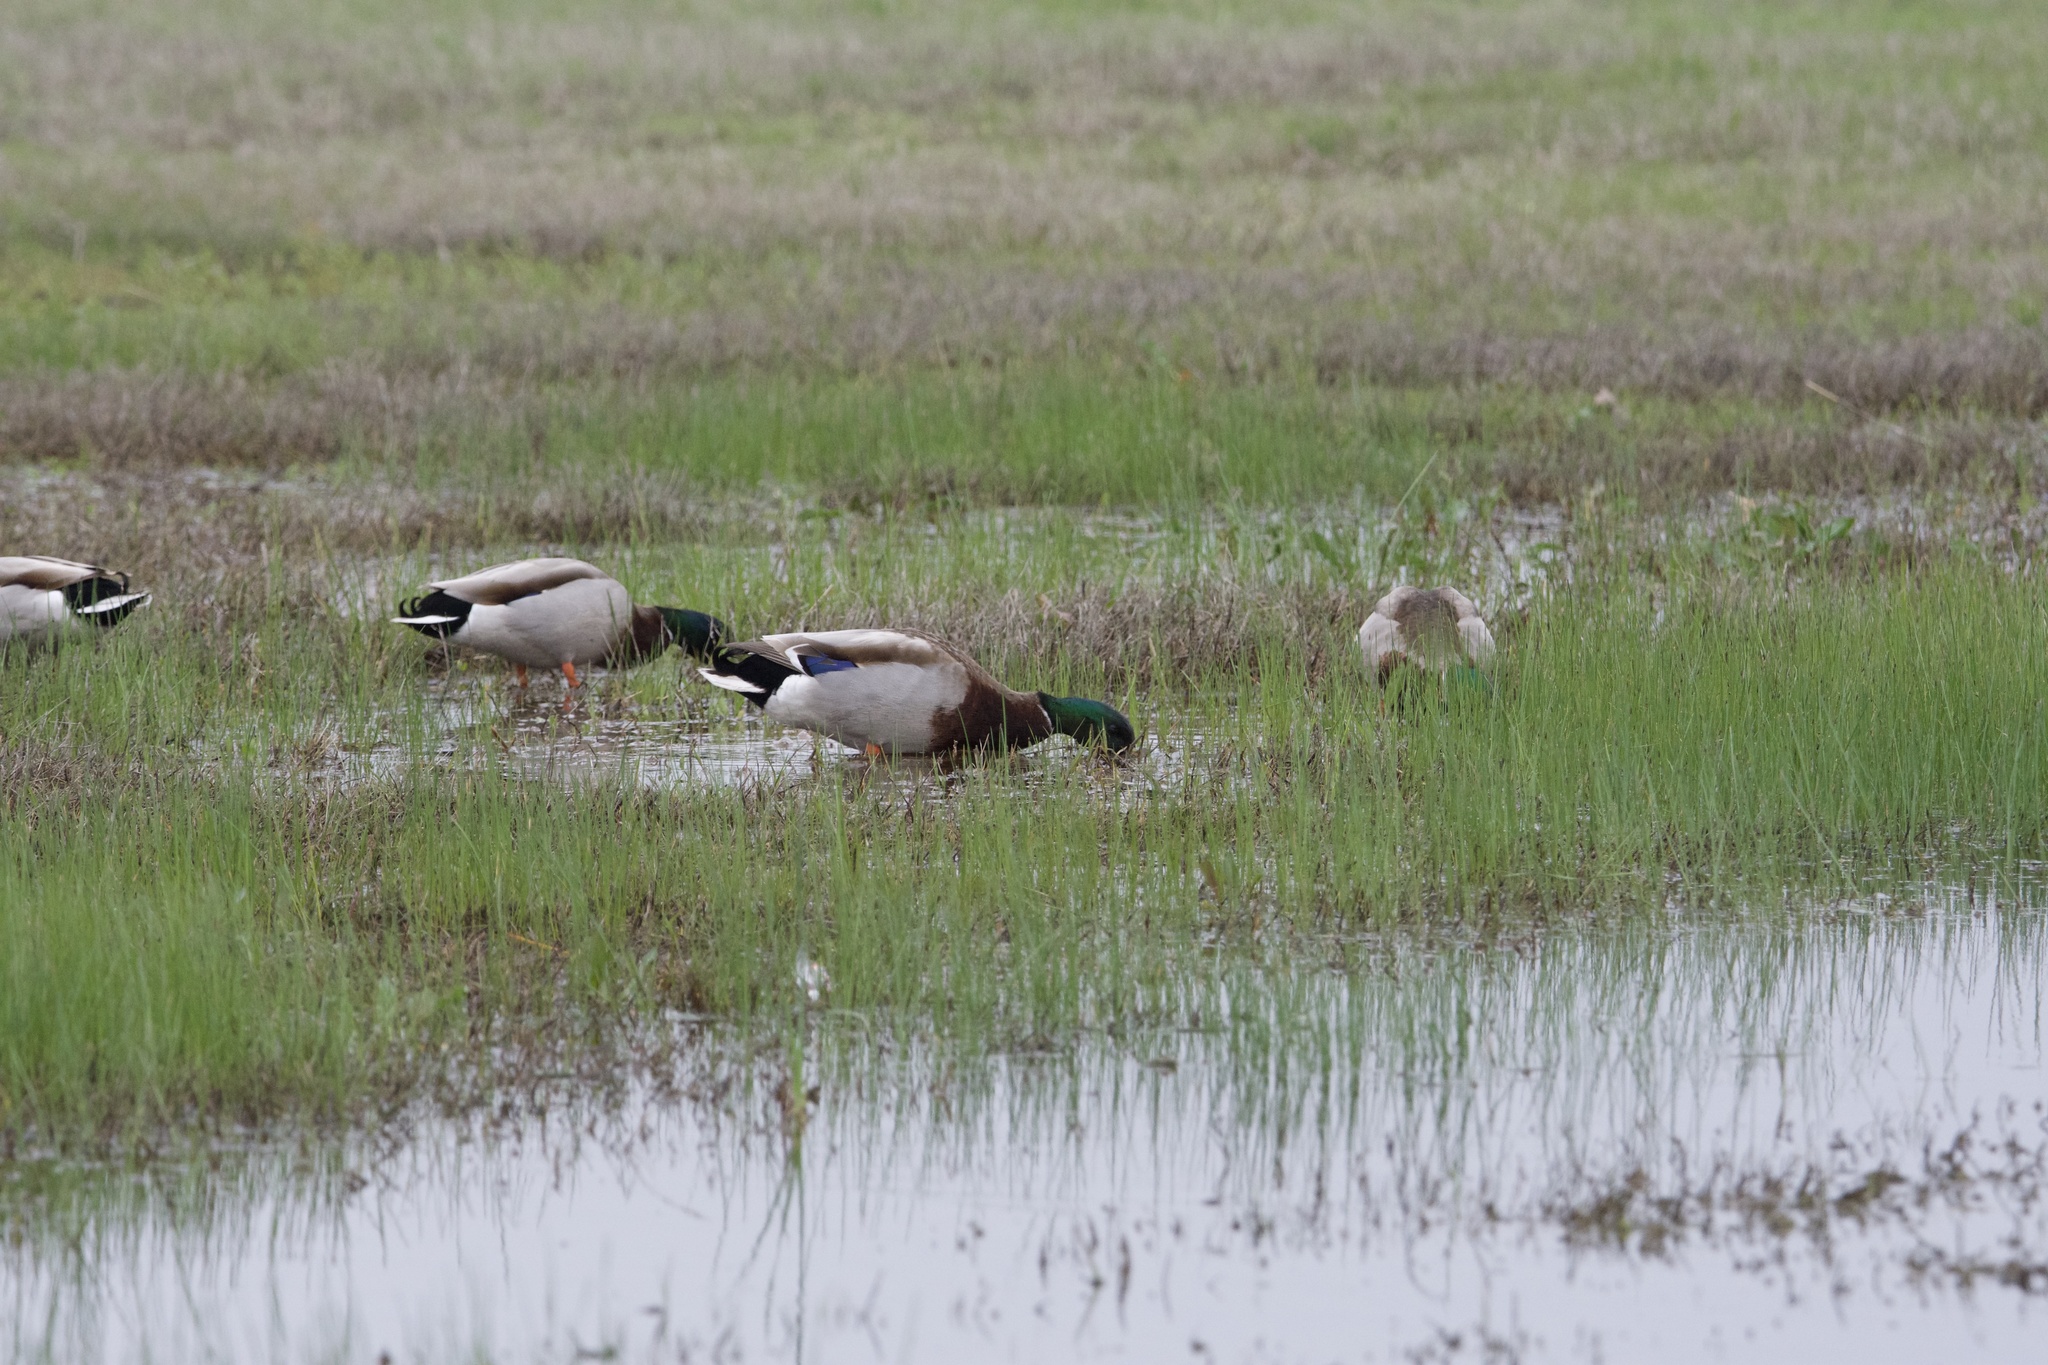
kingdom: Animalia
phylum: Chordata
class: Aves
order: Anseriformes
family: Anatidae
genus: Anas
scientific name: Anas platyrhynchos
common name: Mallard
